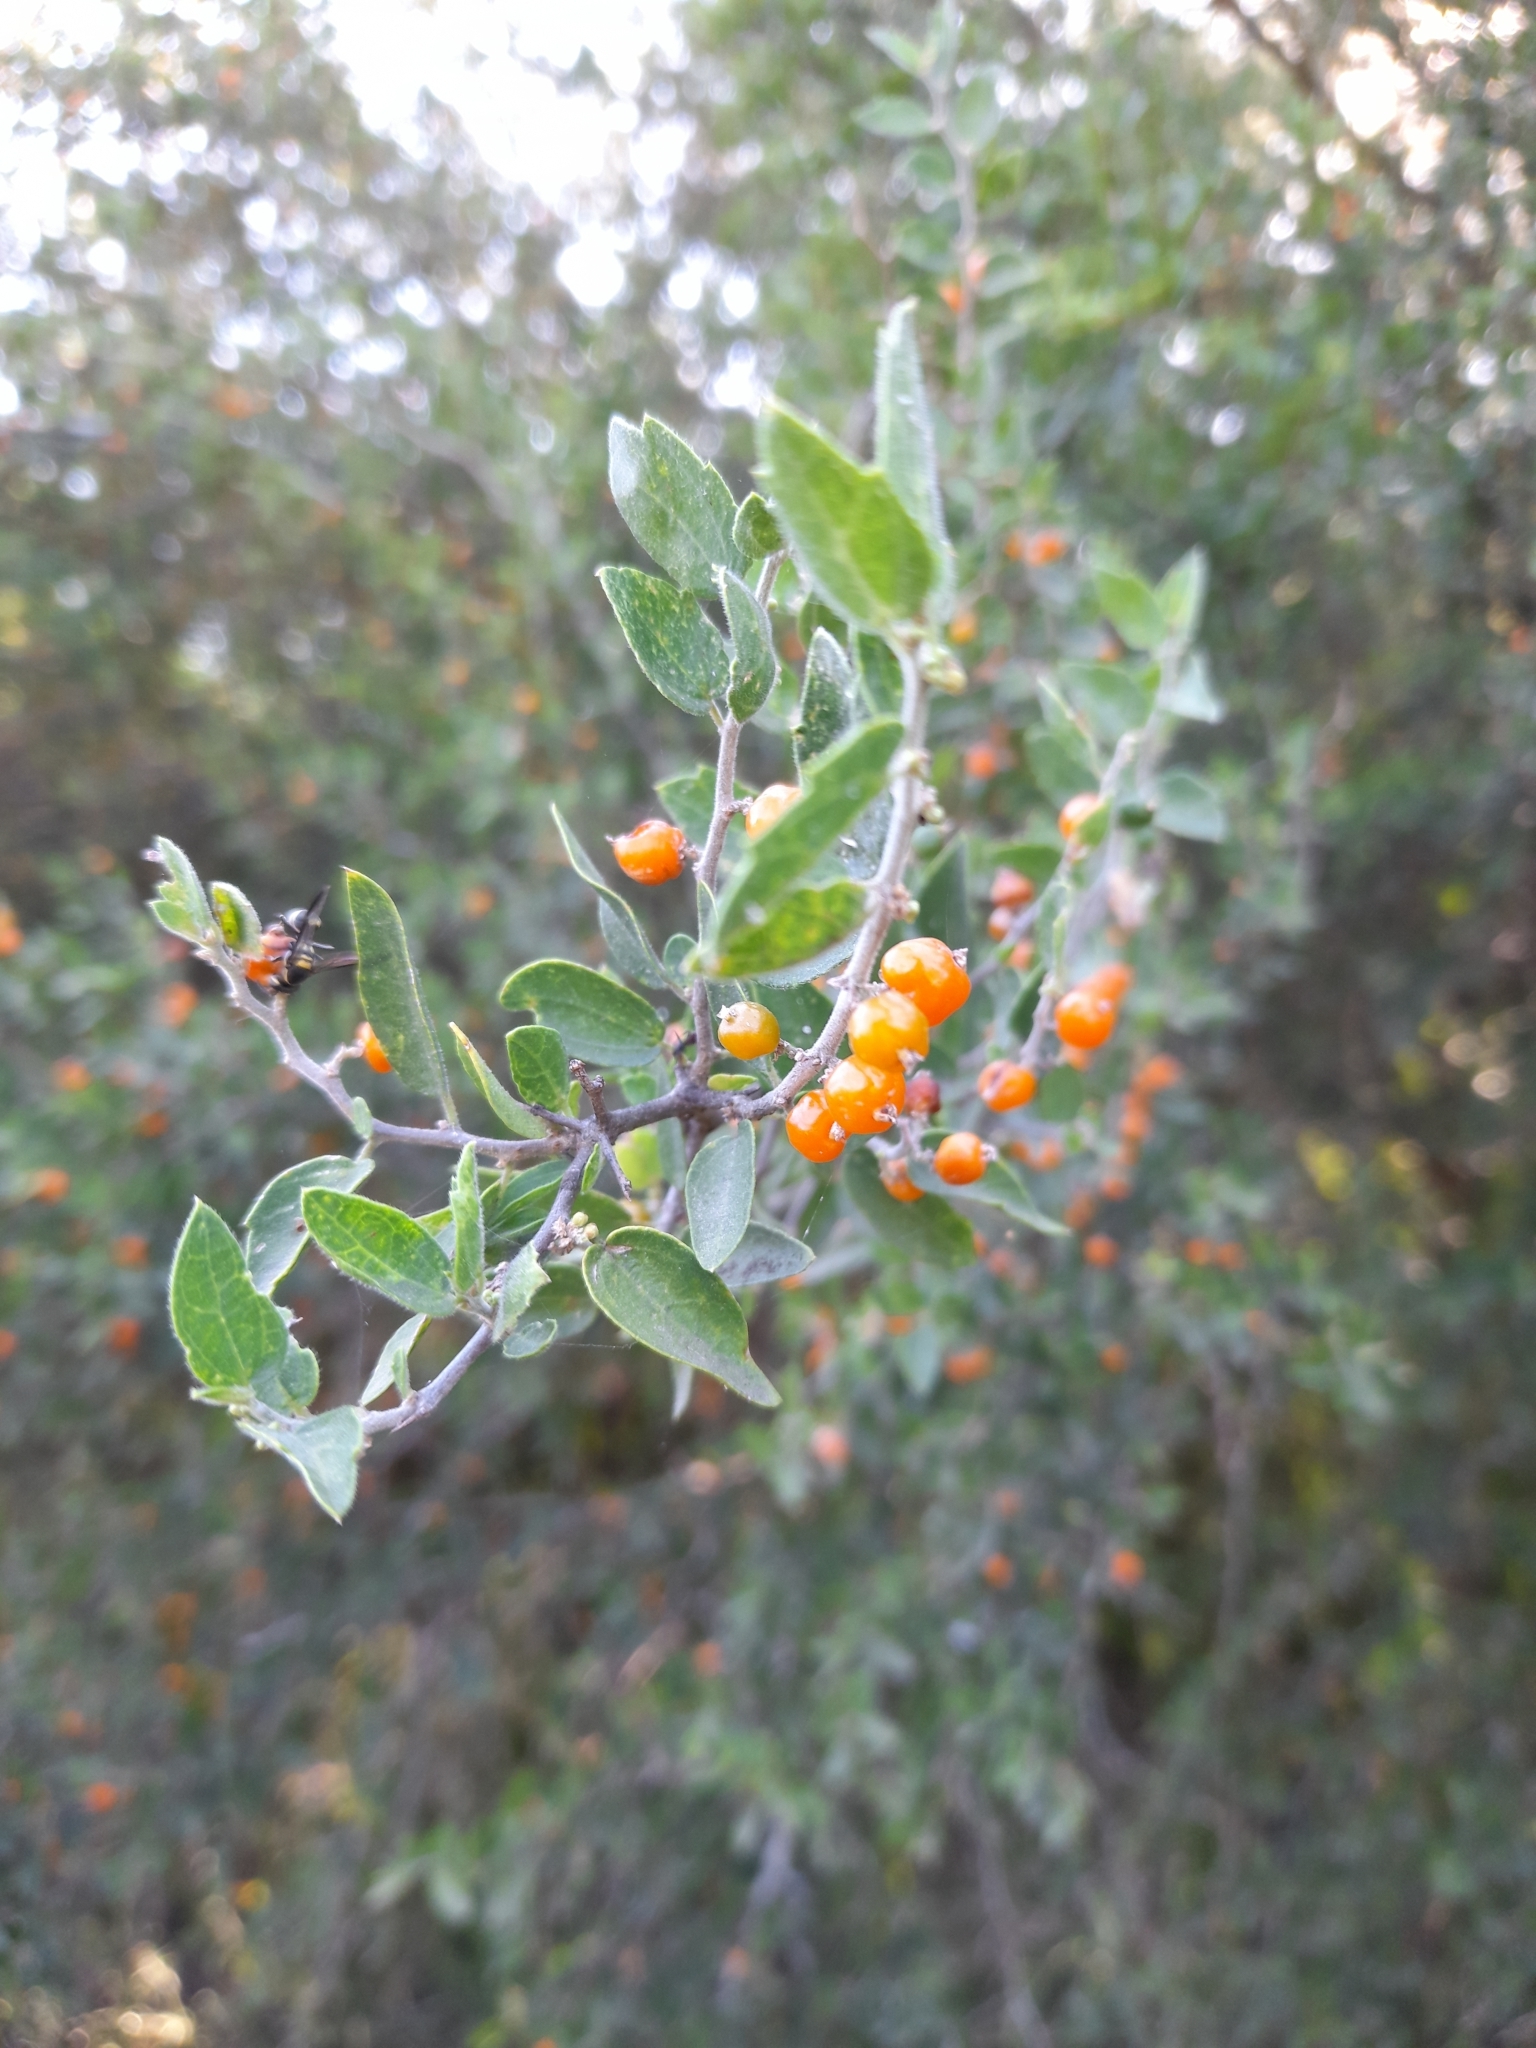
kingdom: Plantae
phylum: Tracheophyta
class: Magnoliopsida
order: Rosales
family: Cannabaceae
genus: Celtis
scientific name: Celtis pallida
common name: Desert hackberry
